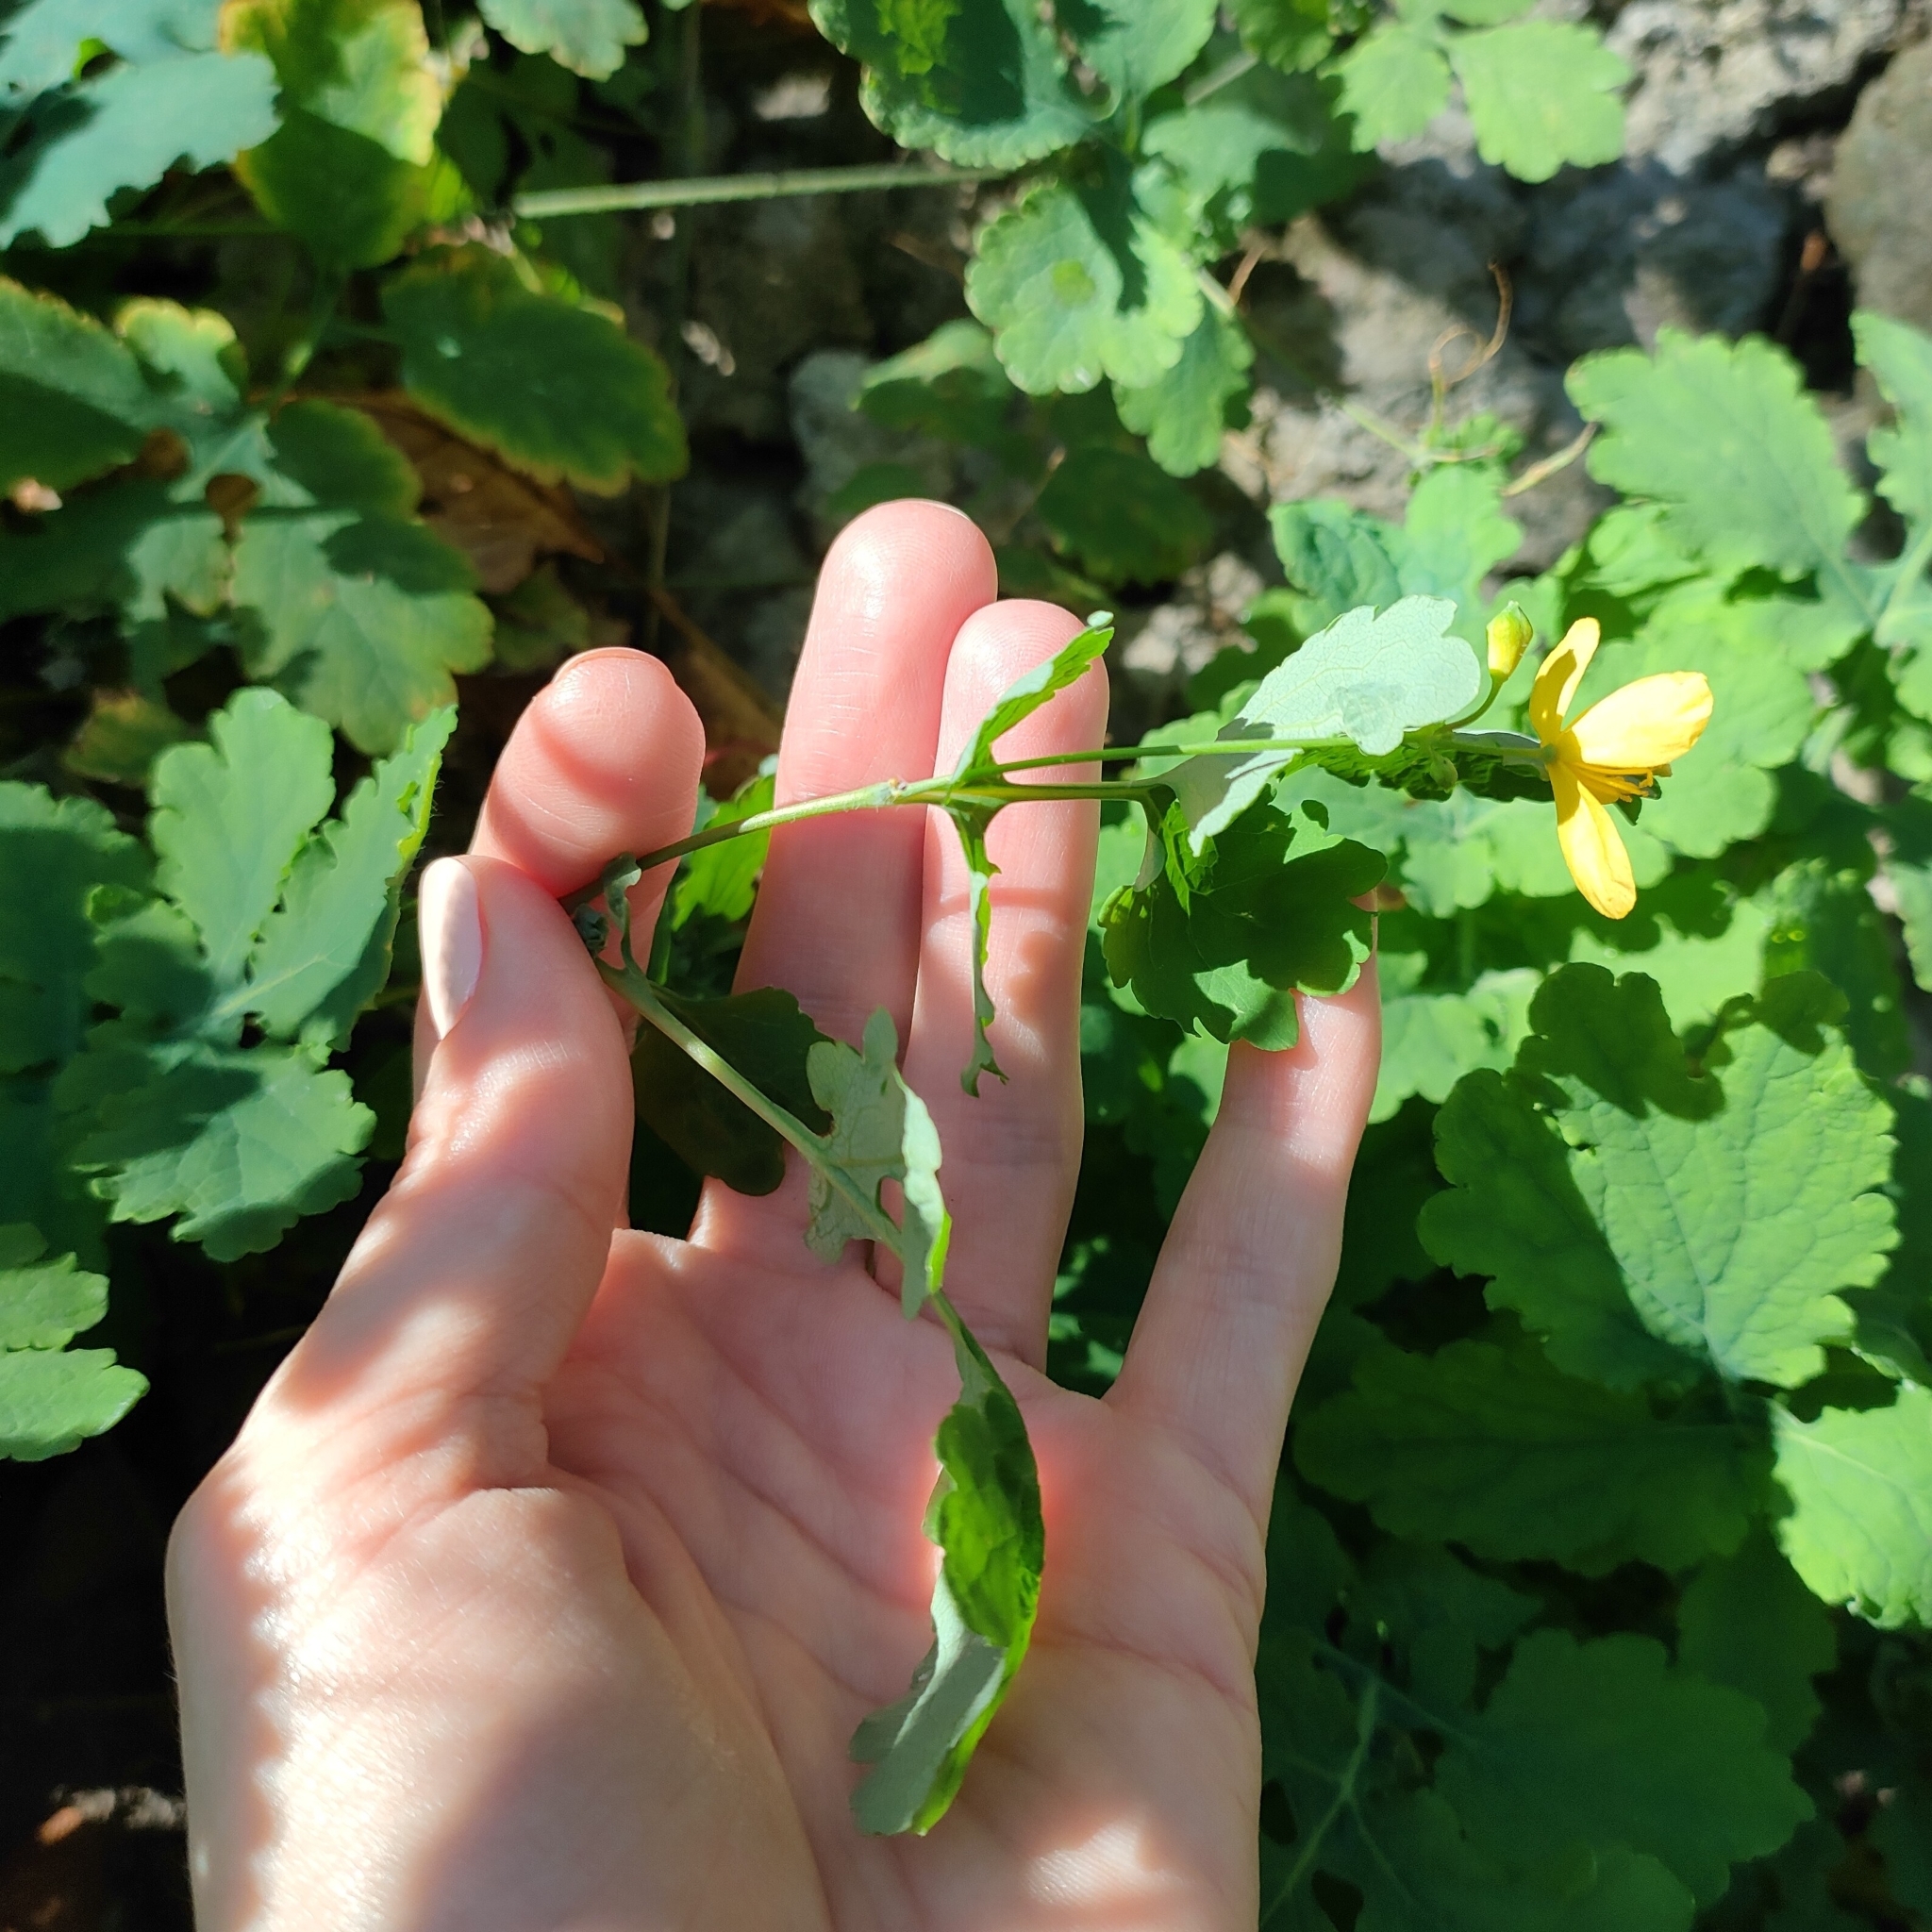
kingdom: Plantae
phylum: Tracheophyta
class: Magnoliopsida
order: Ranunculales
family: Papaveraceae
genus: Chelidonium
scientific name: Chelidonium majus
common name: Greater celandine
